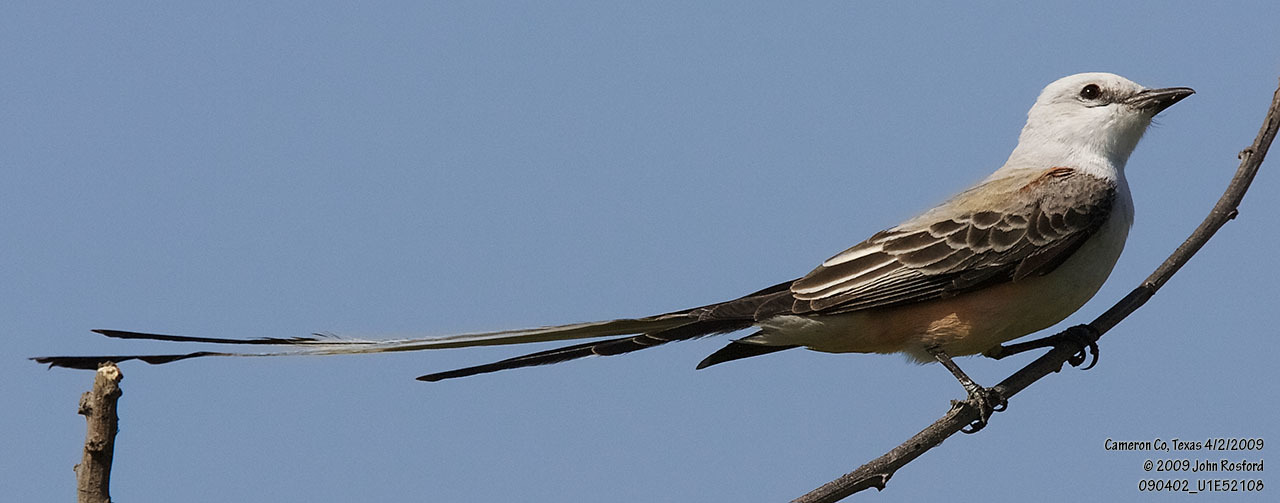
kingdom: Animalia
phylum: Chordata
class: Aves
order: Passeriformes
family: Tyrannidae
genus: Tyrannus
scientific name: Tyrannus forficatus
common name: Scissor-tailed flycatcher
